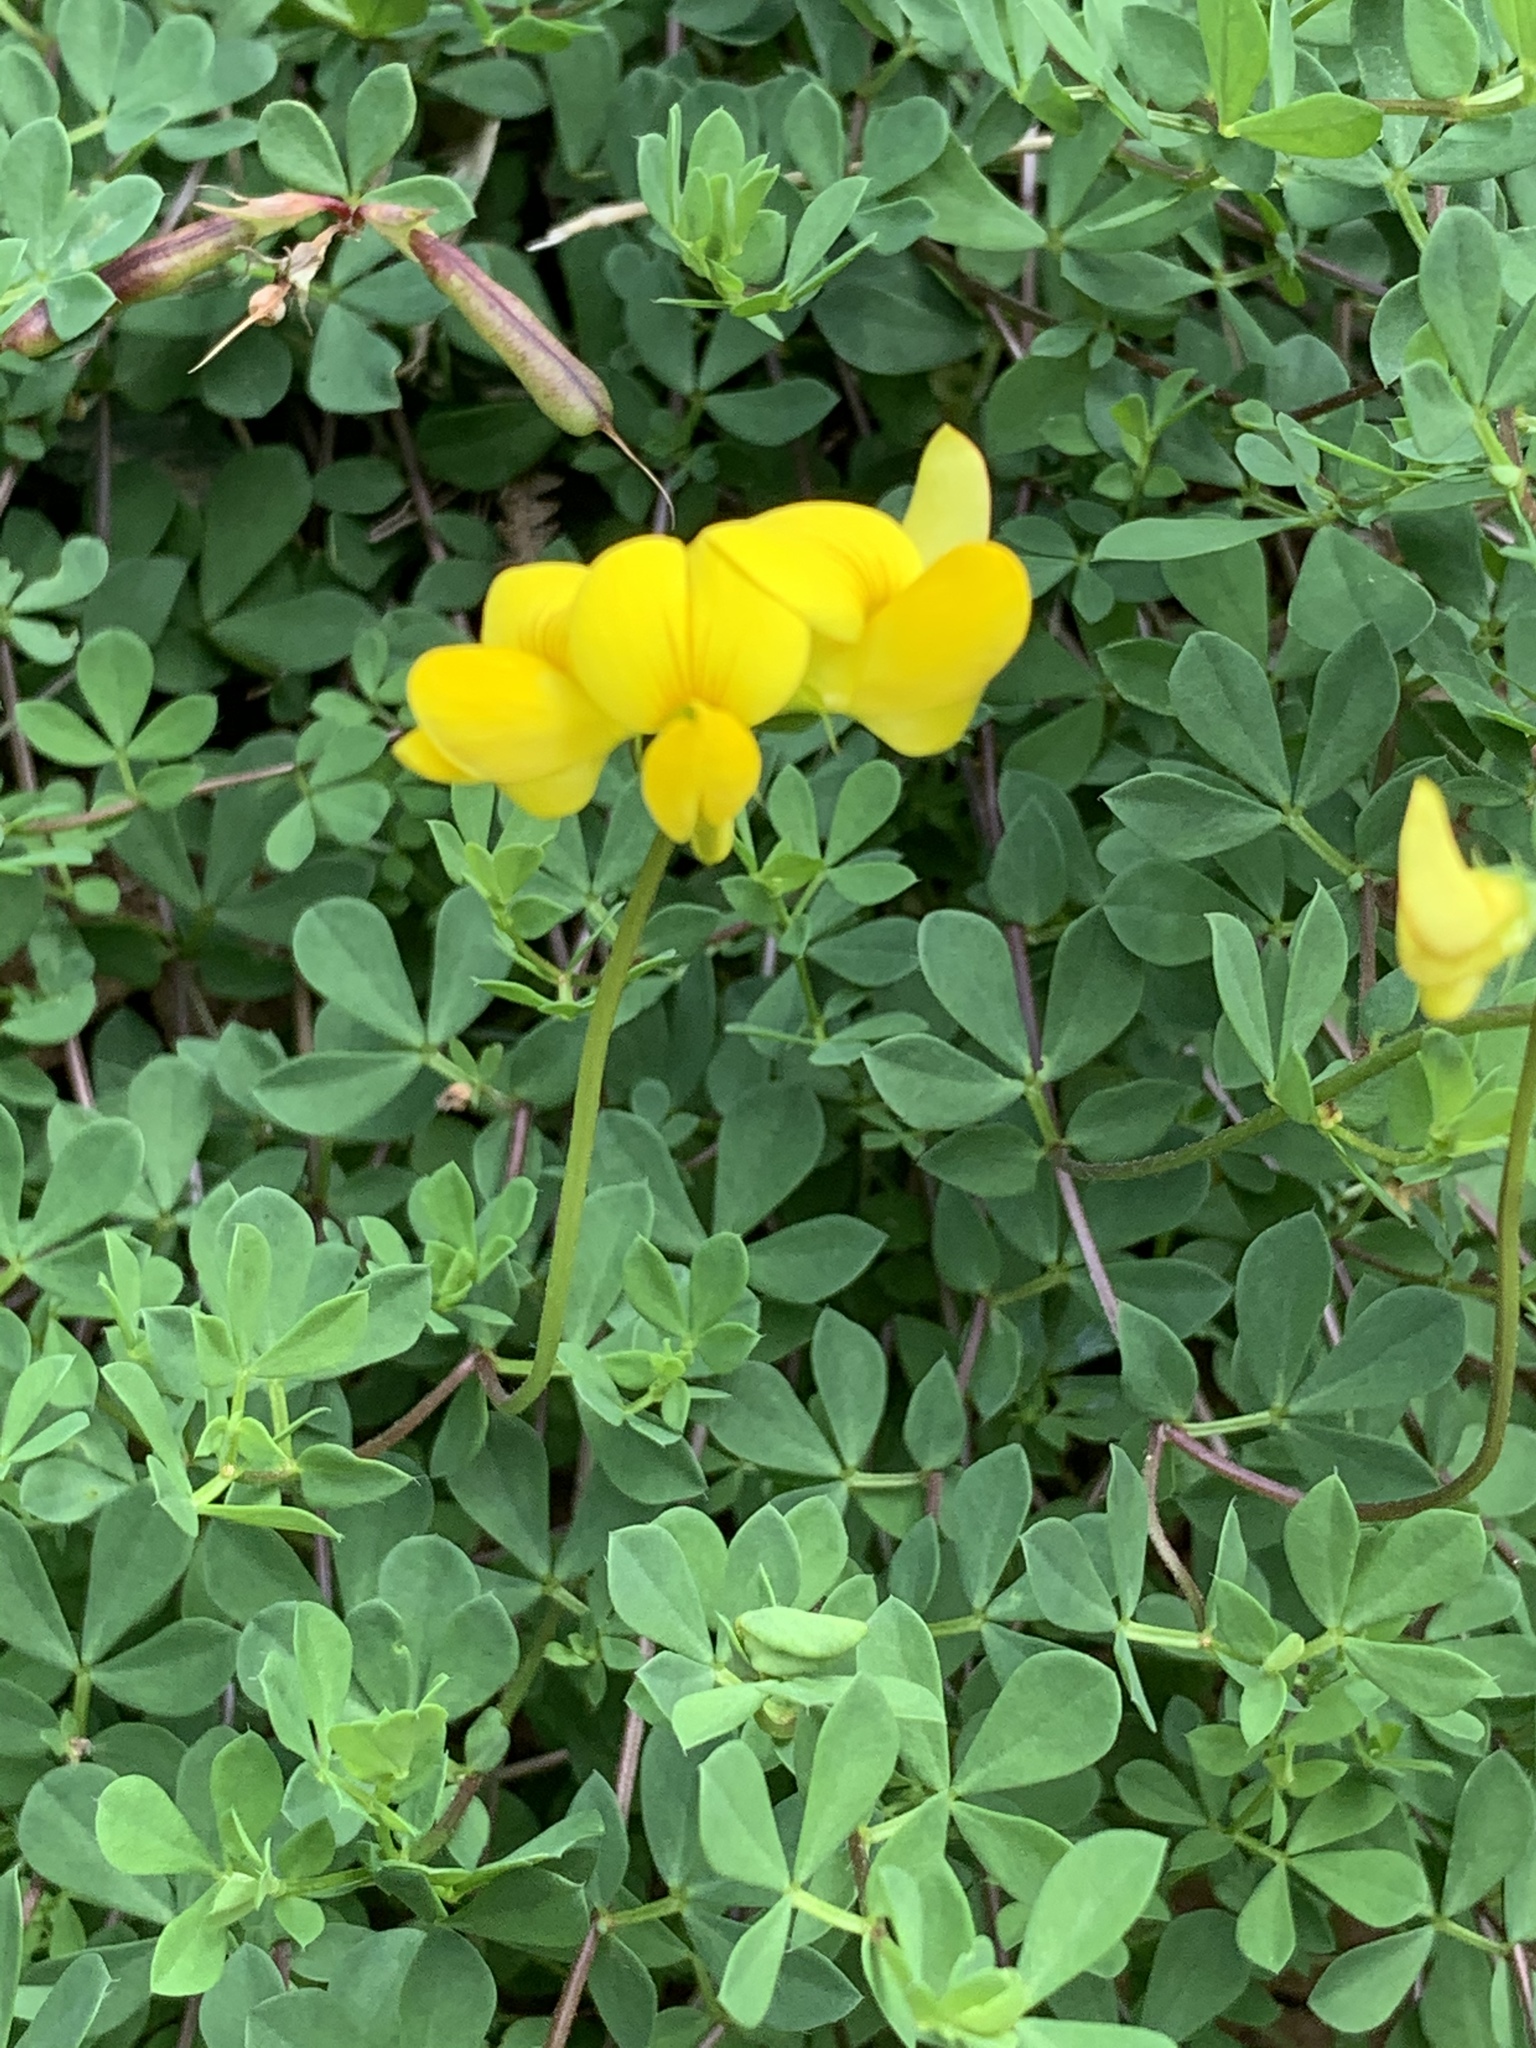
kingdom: Plantae
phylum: Tracheophyta
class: Magnoliopsida
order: Fabales
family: Fabaceae
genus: Lotus
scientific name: Lotus corniculatus
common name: Common bird's-foot-trefoil
